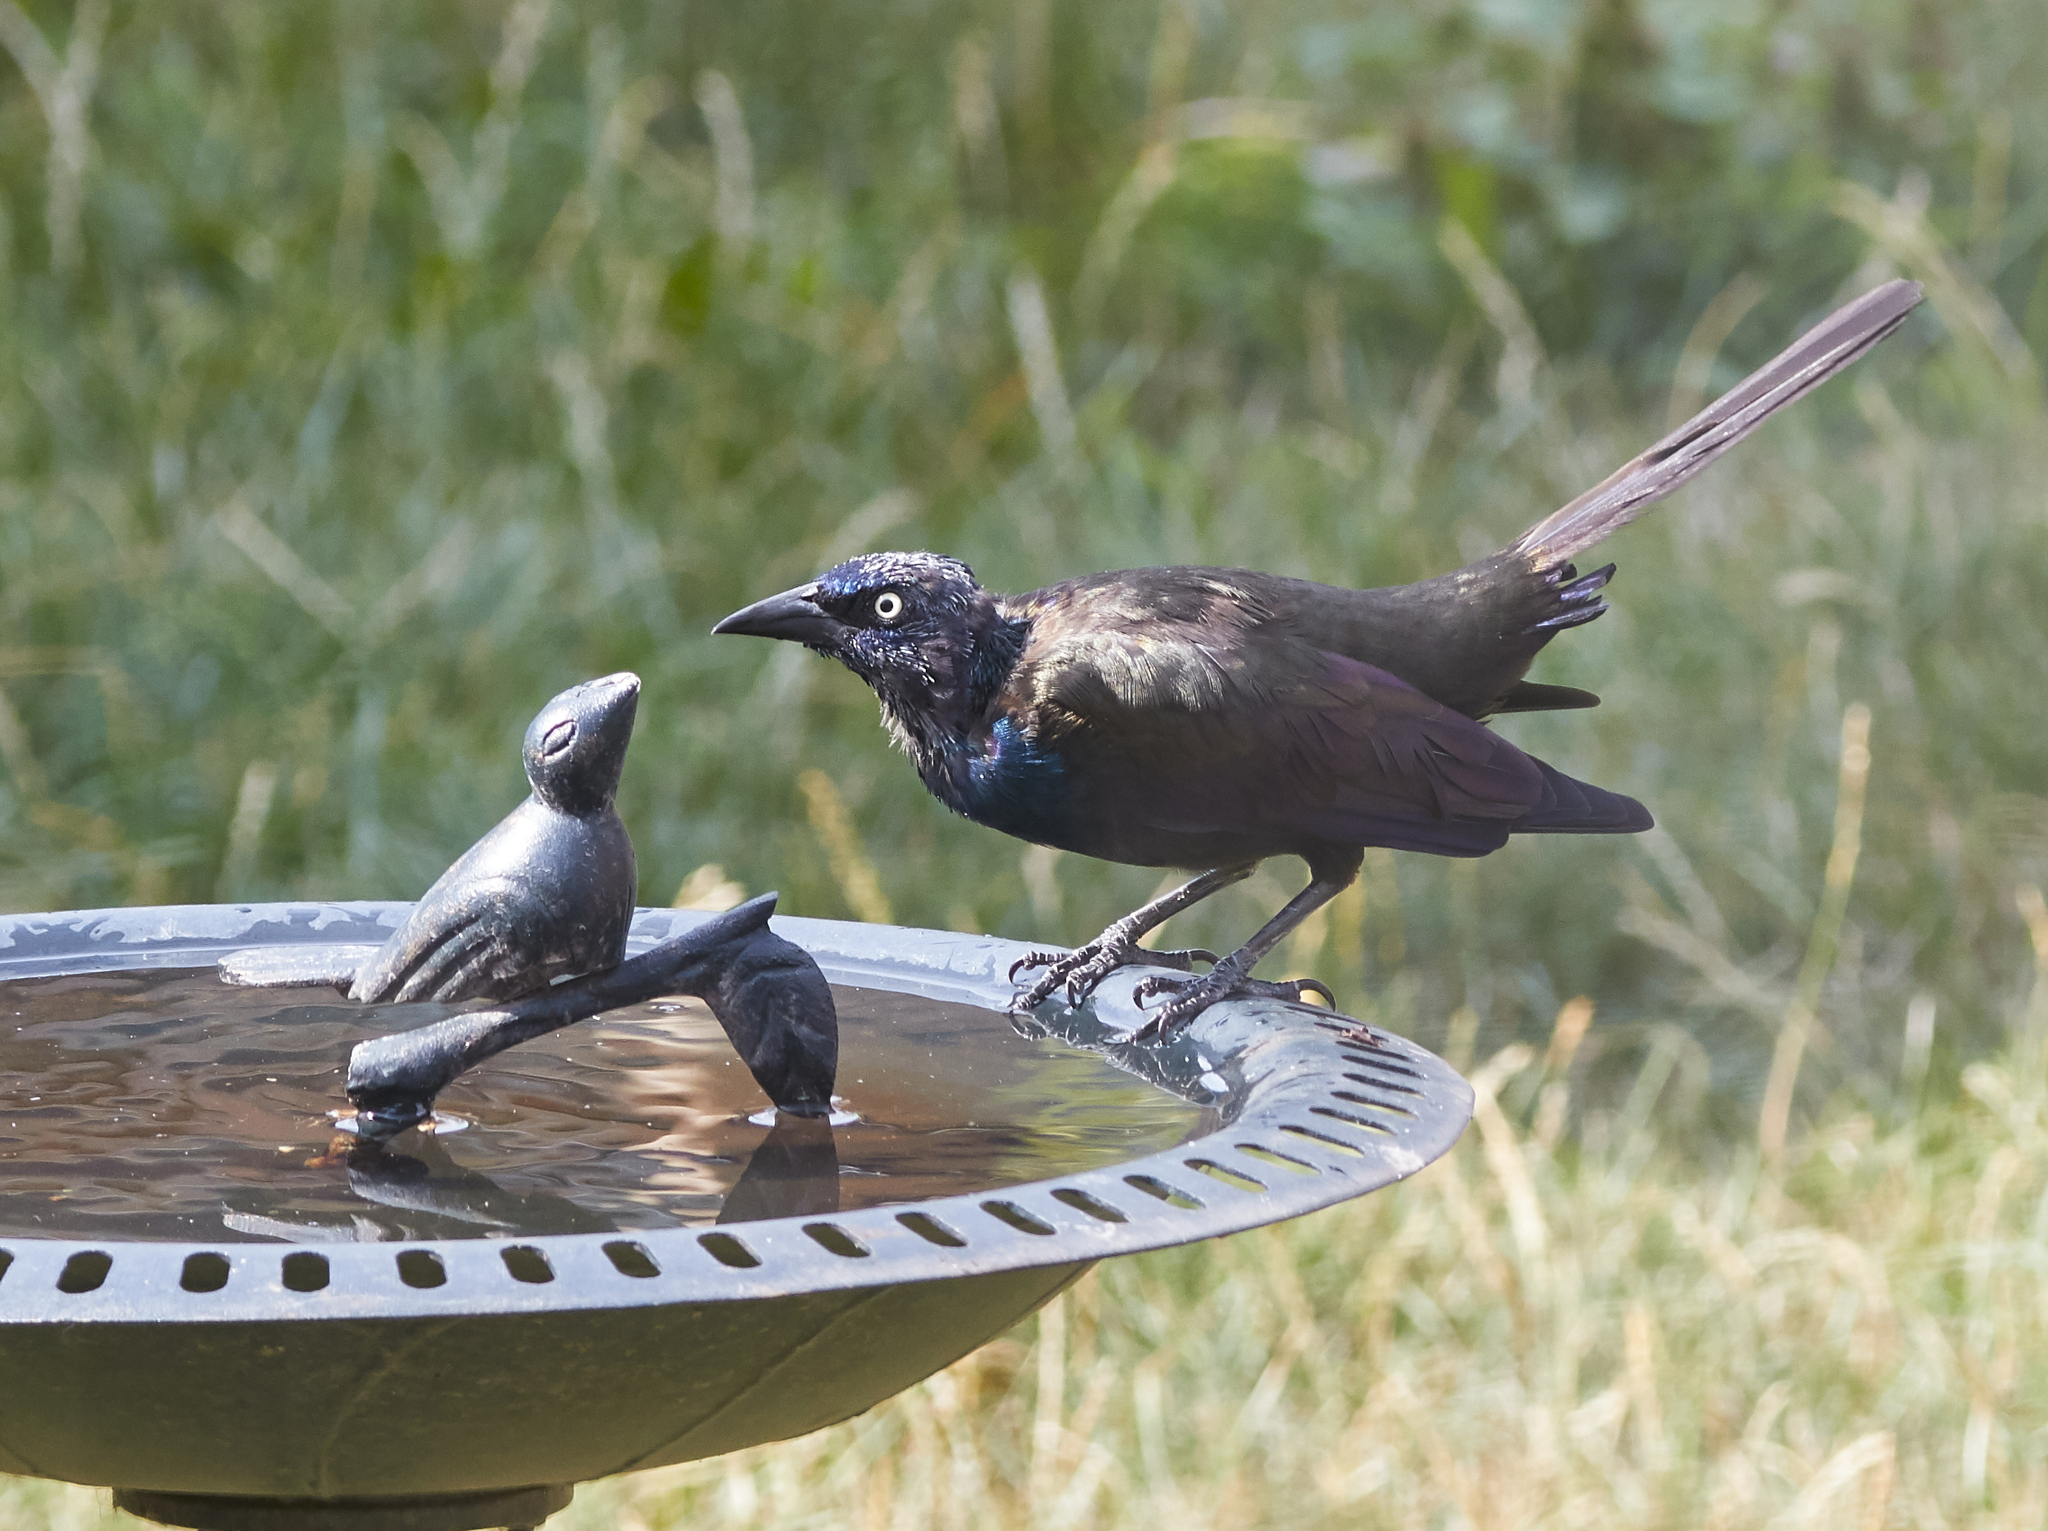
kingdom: Animalia
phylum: Chordata
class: Aves
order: Passeriformes
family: Icteridae
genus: Quiscalus
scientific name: Quiscalus quiscula
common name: Common grackle
